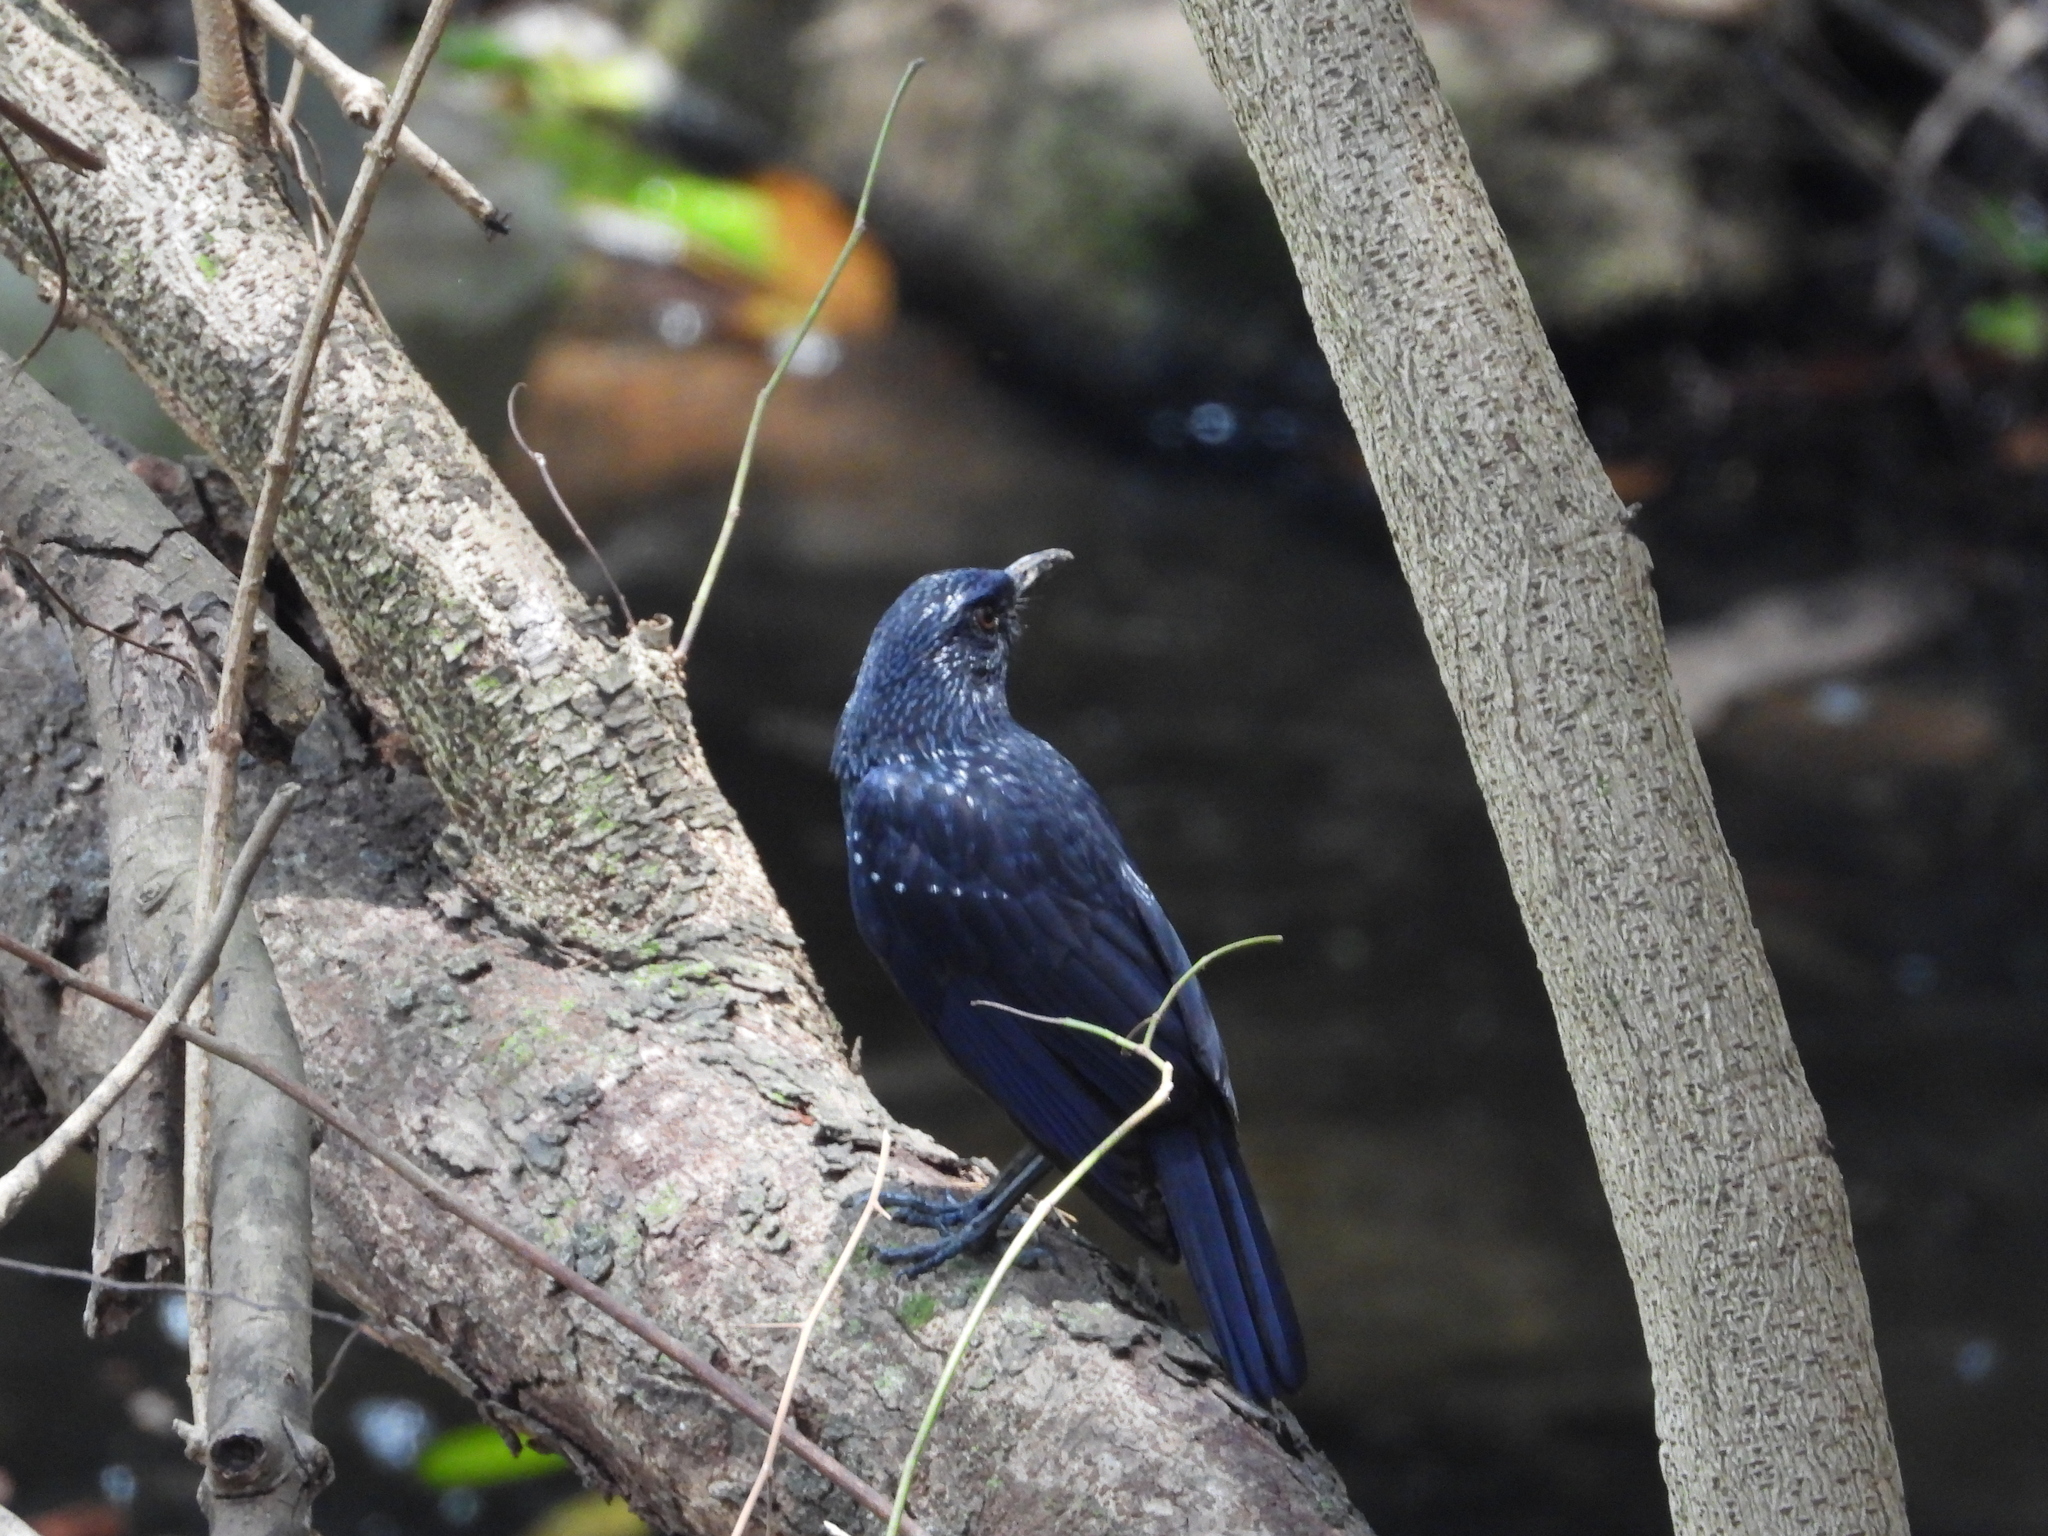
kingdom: Animalia
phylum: Chordata
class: Aves
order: Passeriformes
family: Muscicapidae
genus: Myophonus
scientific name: Myophonus caeruleus
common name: Blue whistling-thrush
